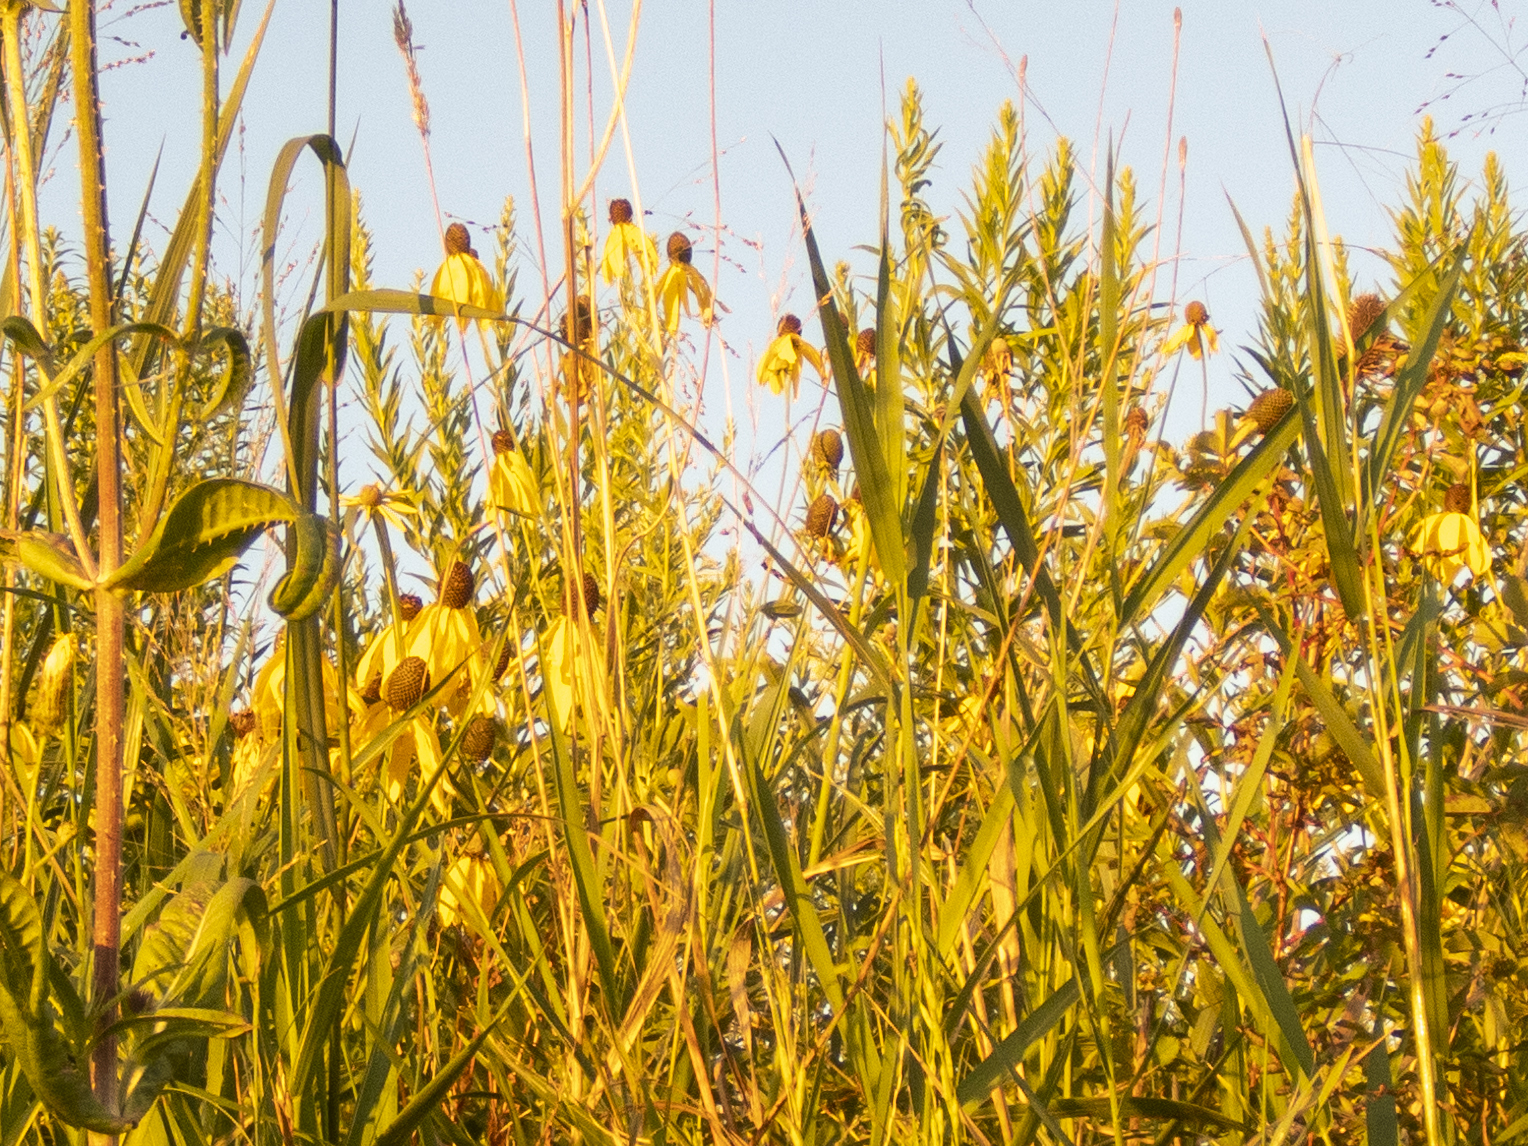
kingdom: Plantae
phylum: Tracheophyta
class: Magnoliopsida
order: Asterales
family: Asteraceae
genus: Rudbeckia
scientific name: Rudbeckia laciniata
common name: Coneflower
